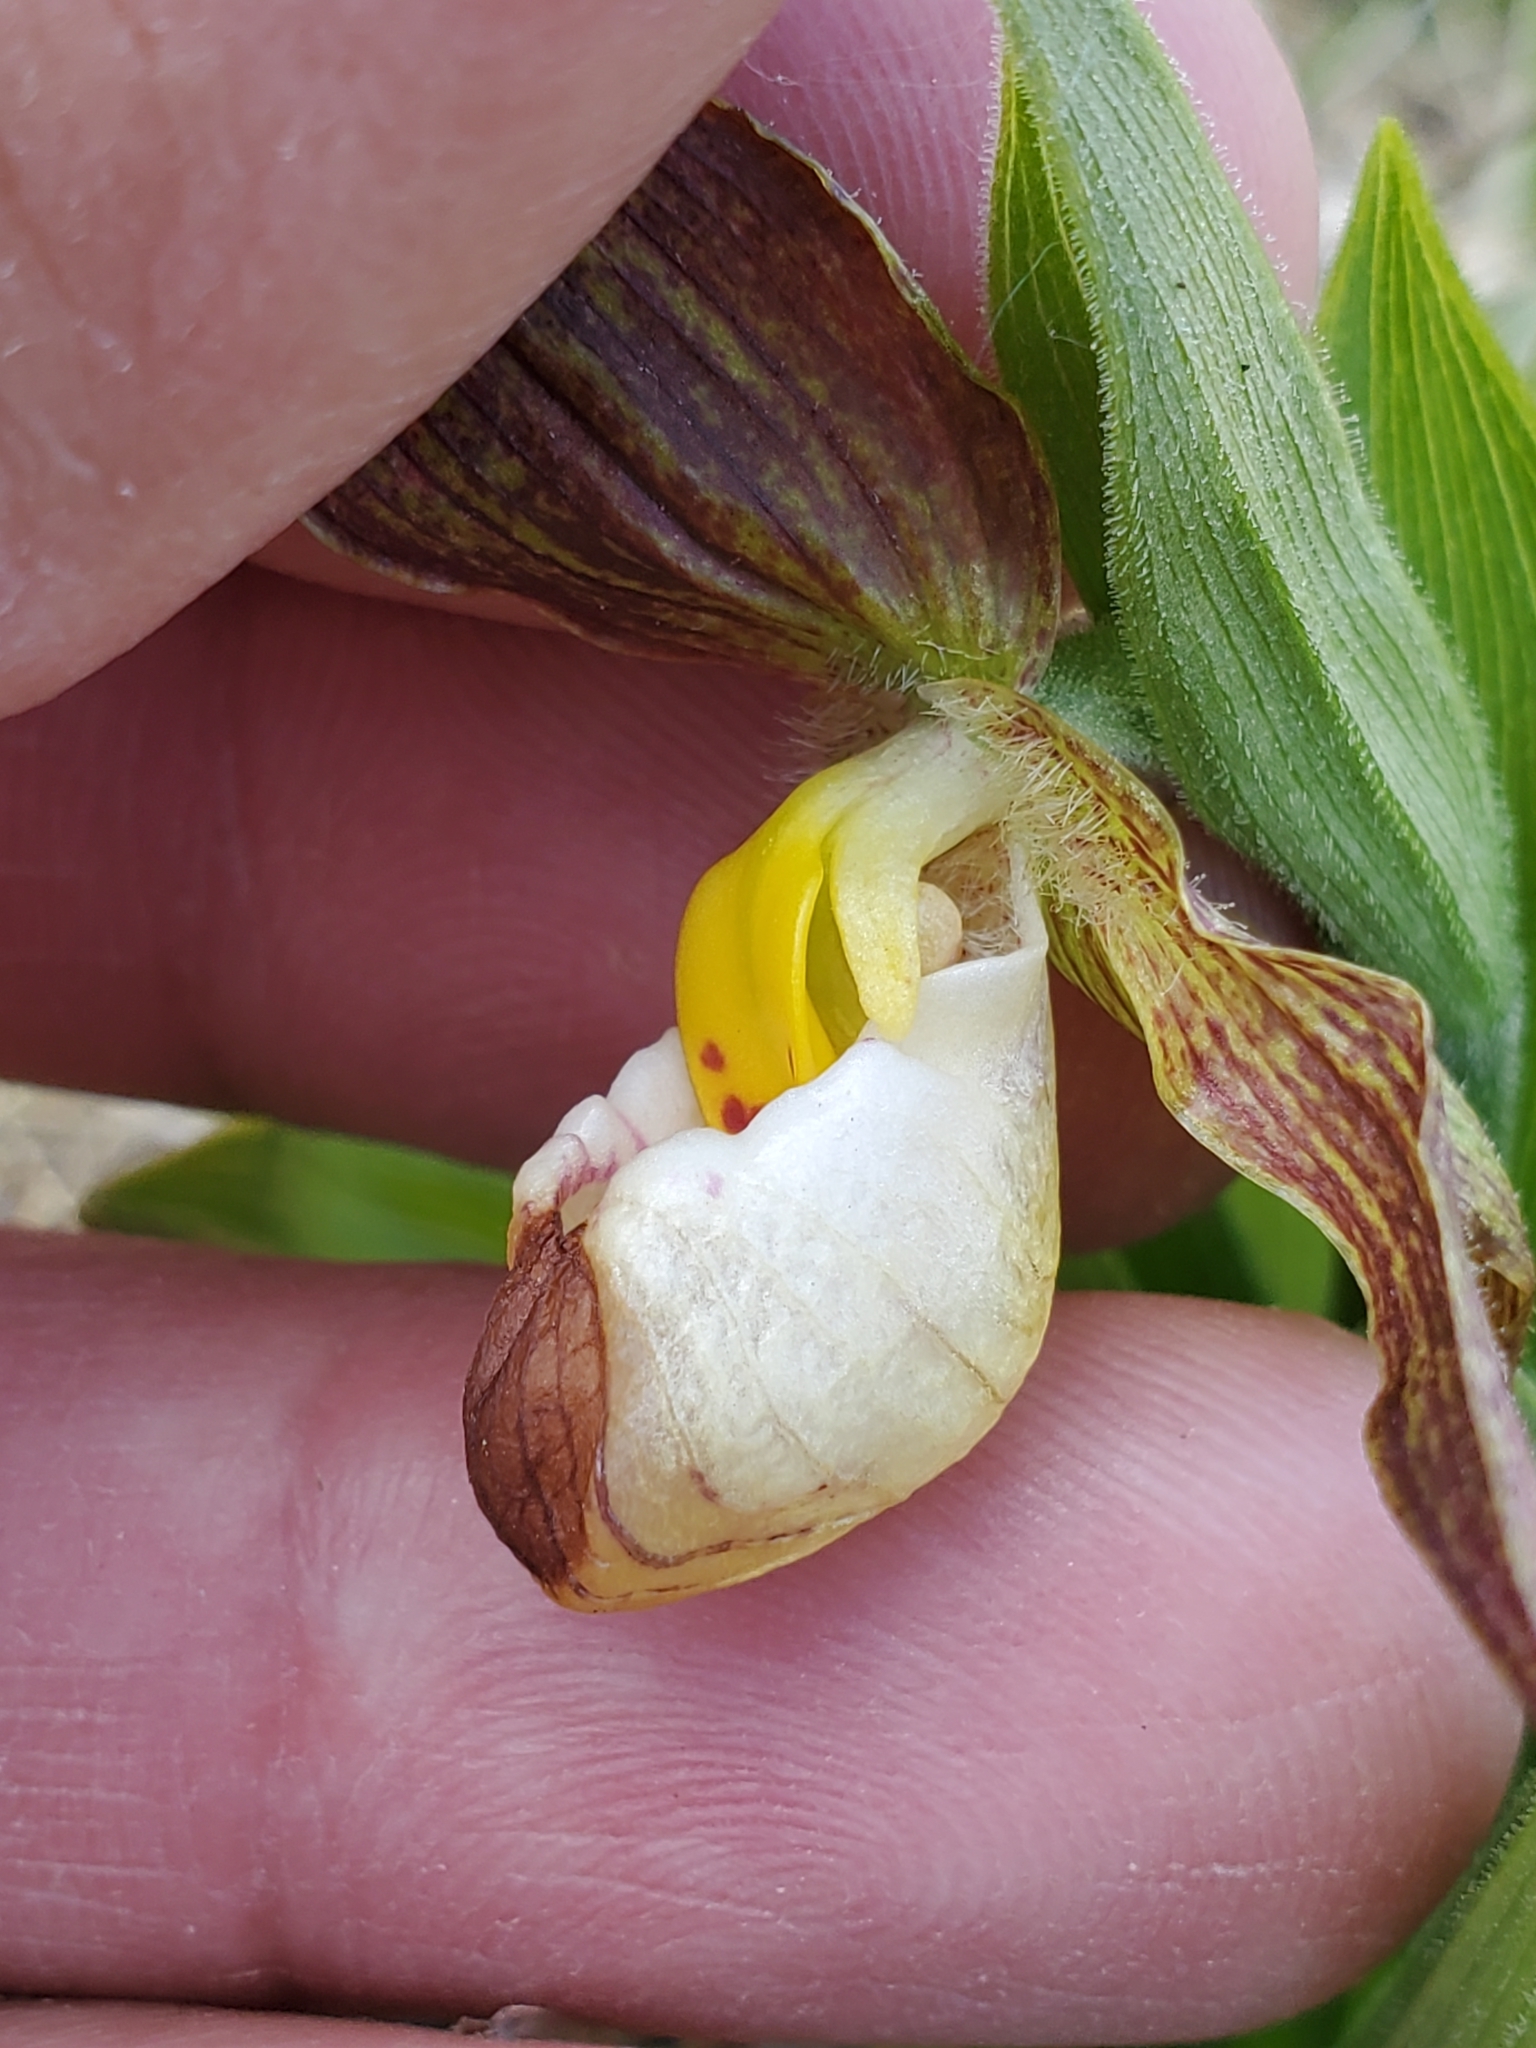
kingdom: Plantae
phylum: Tracheophyta
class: Liliopsida
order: Asparagales
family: Orchidaceae
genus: Cypripedium
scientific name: Cypripedium candidum
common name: White lady's-slipper
